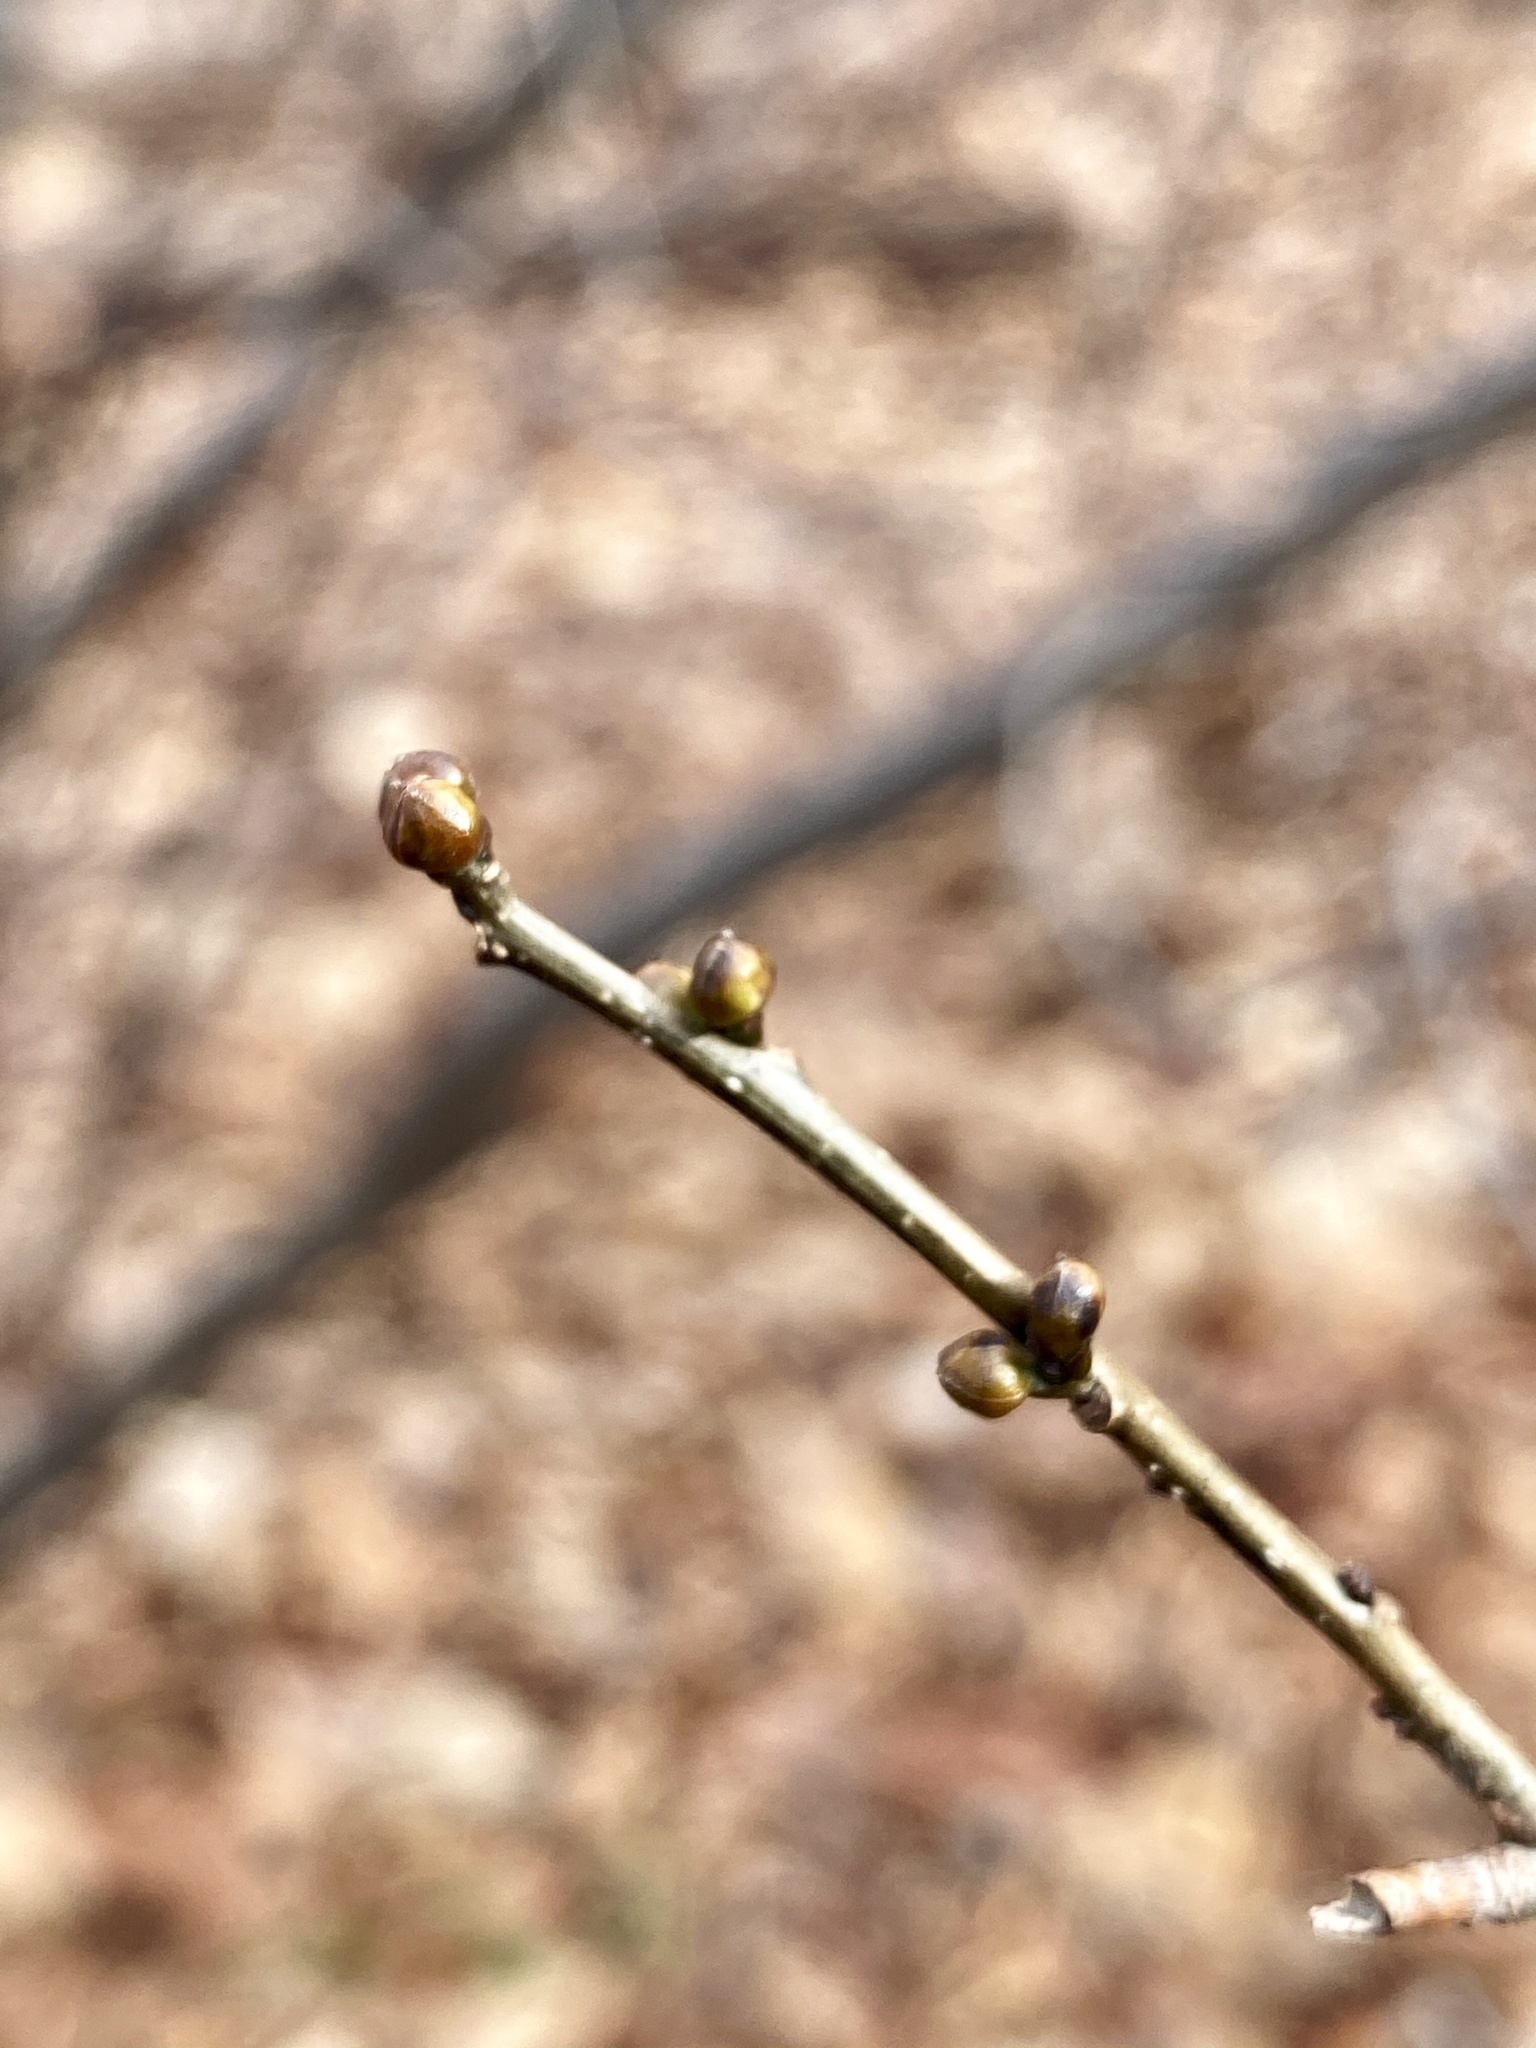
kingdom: Plantae
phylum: Tracheophyta
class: Magnoliopsida
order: Laurales
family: Lauraceae
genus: Lindera
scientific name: Lindera benzoin
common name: Spicebush
